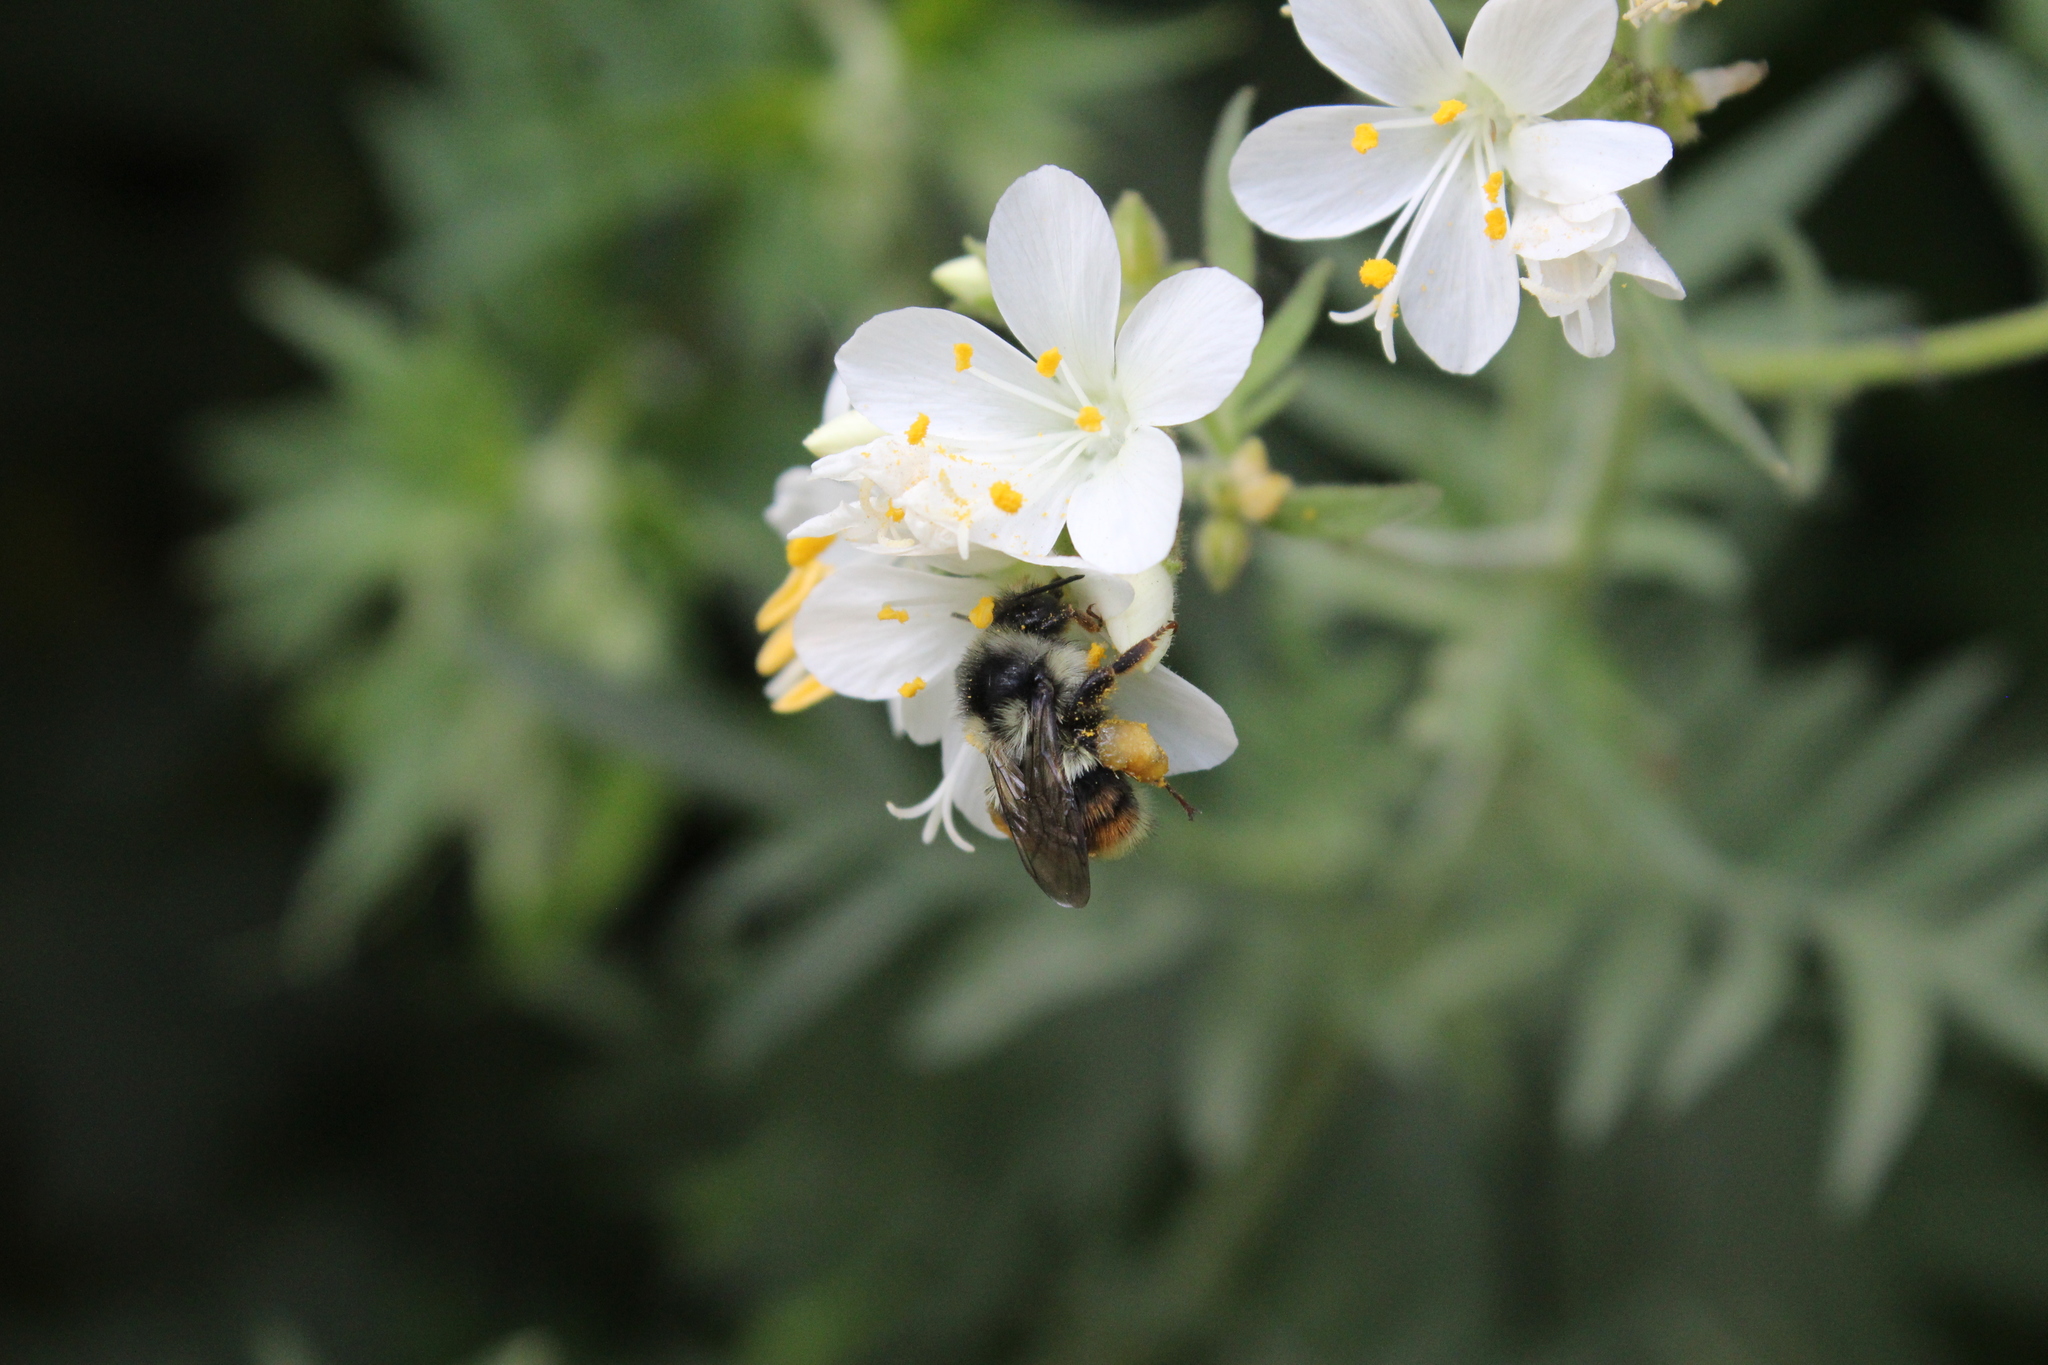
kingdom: Animalia
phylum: Arthropoda
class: Insecta
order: Hymenoptera
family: Apidae
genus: Bombus
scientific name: Bombus vancouverensis
